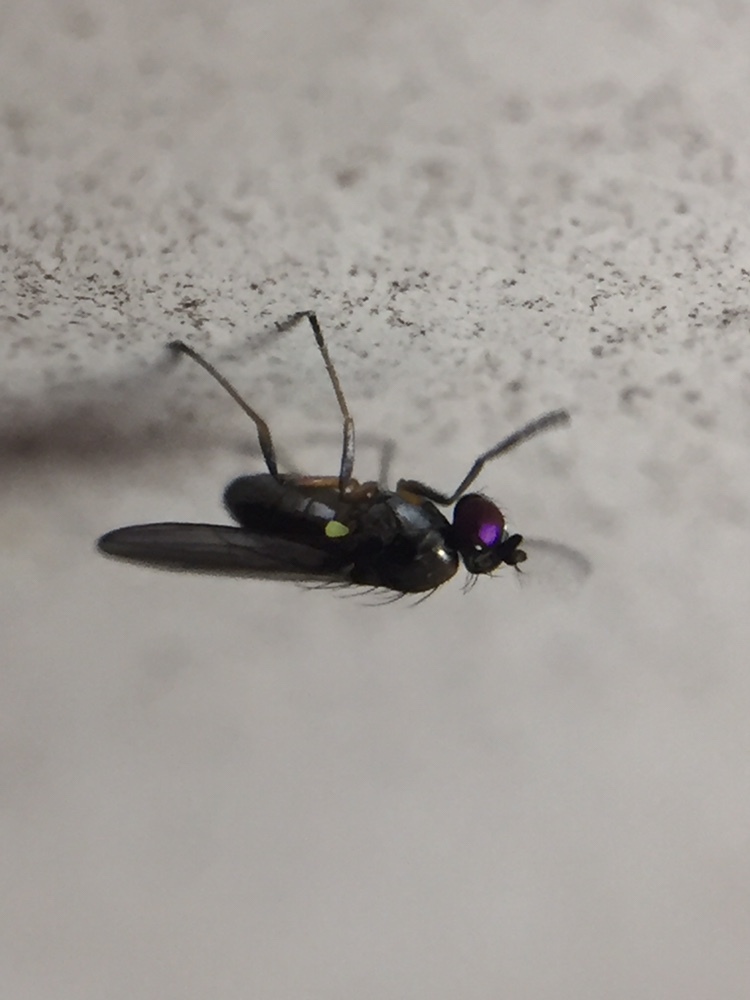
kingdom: Animalia
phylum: Arthropoda
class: Insecta
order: Diptera
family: Ephydridae
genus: Hydrellia
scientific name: Hydrellia tritici
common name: Shore fly
